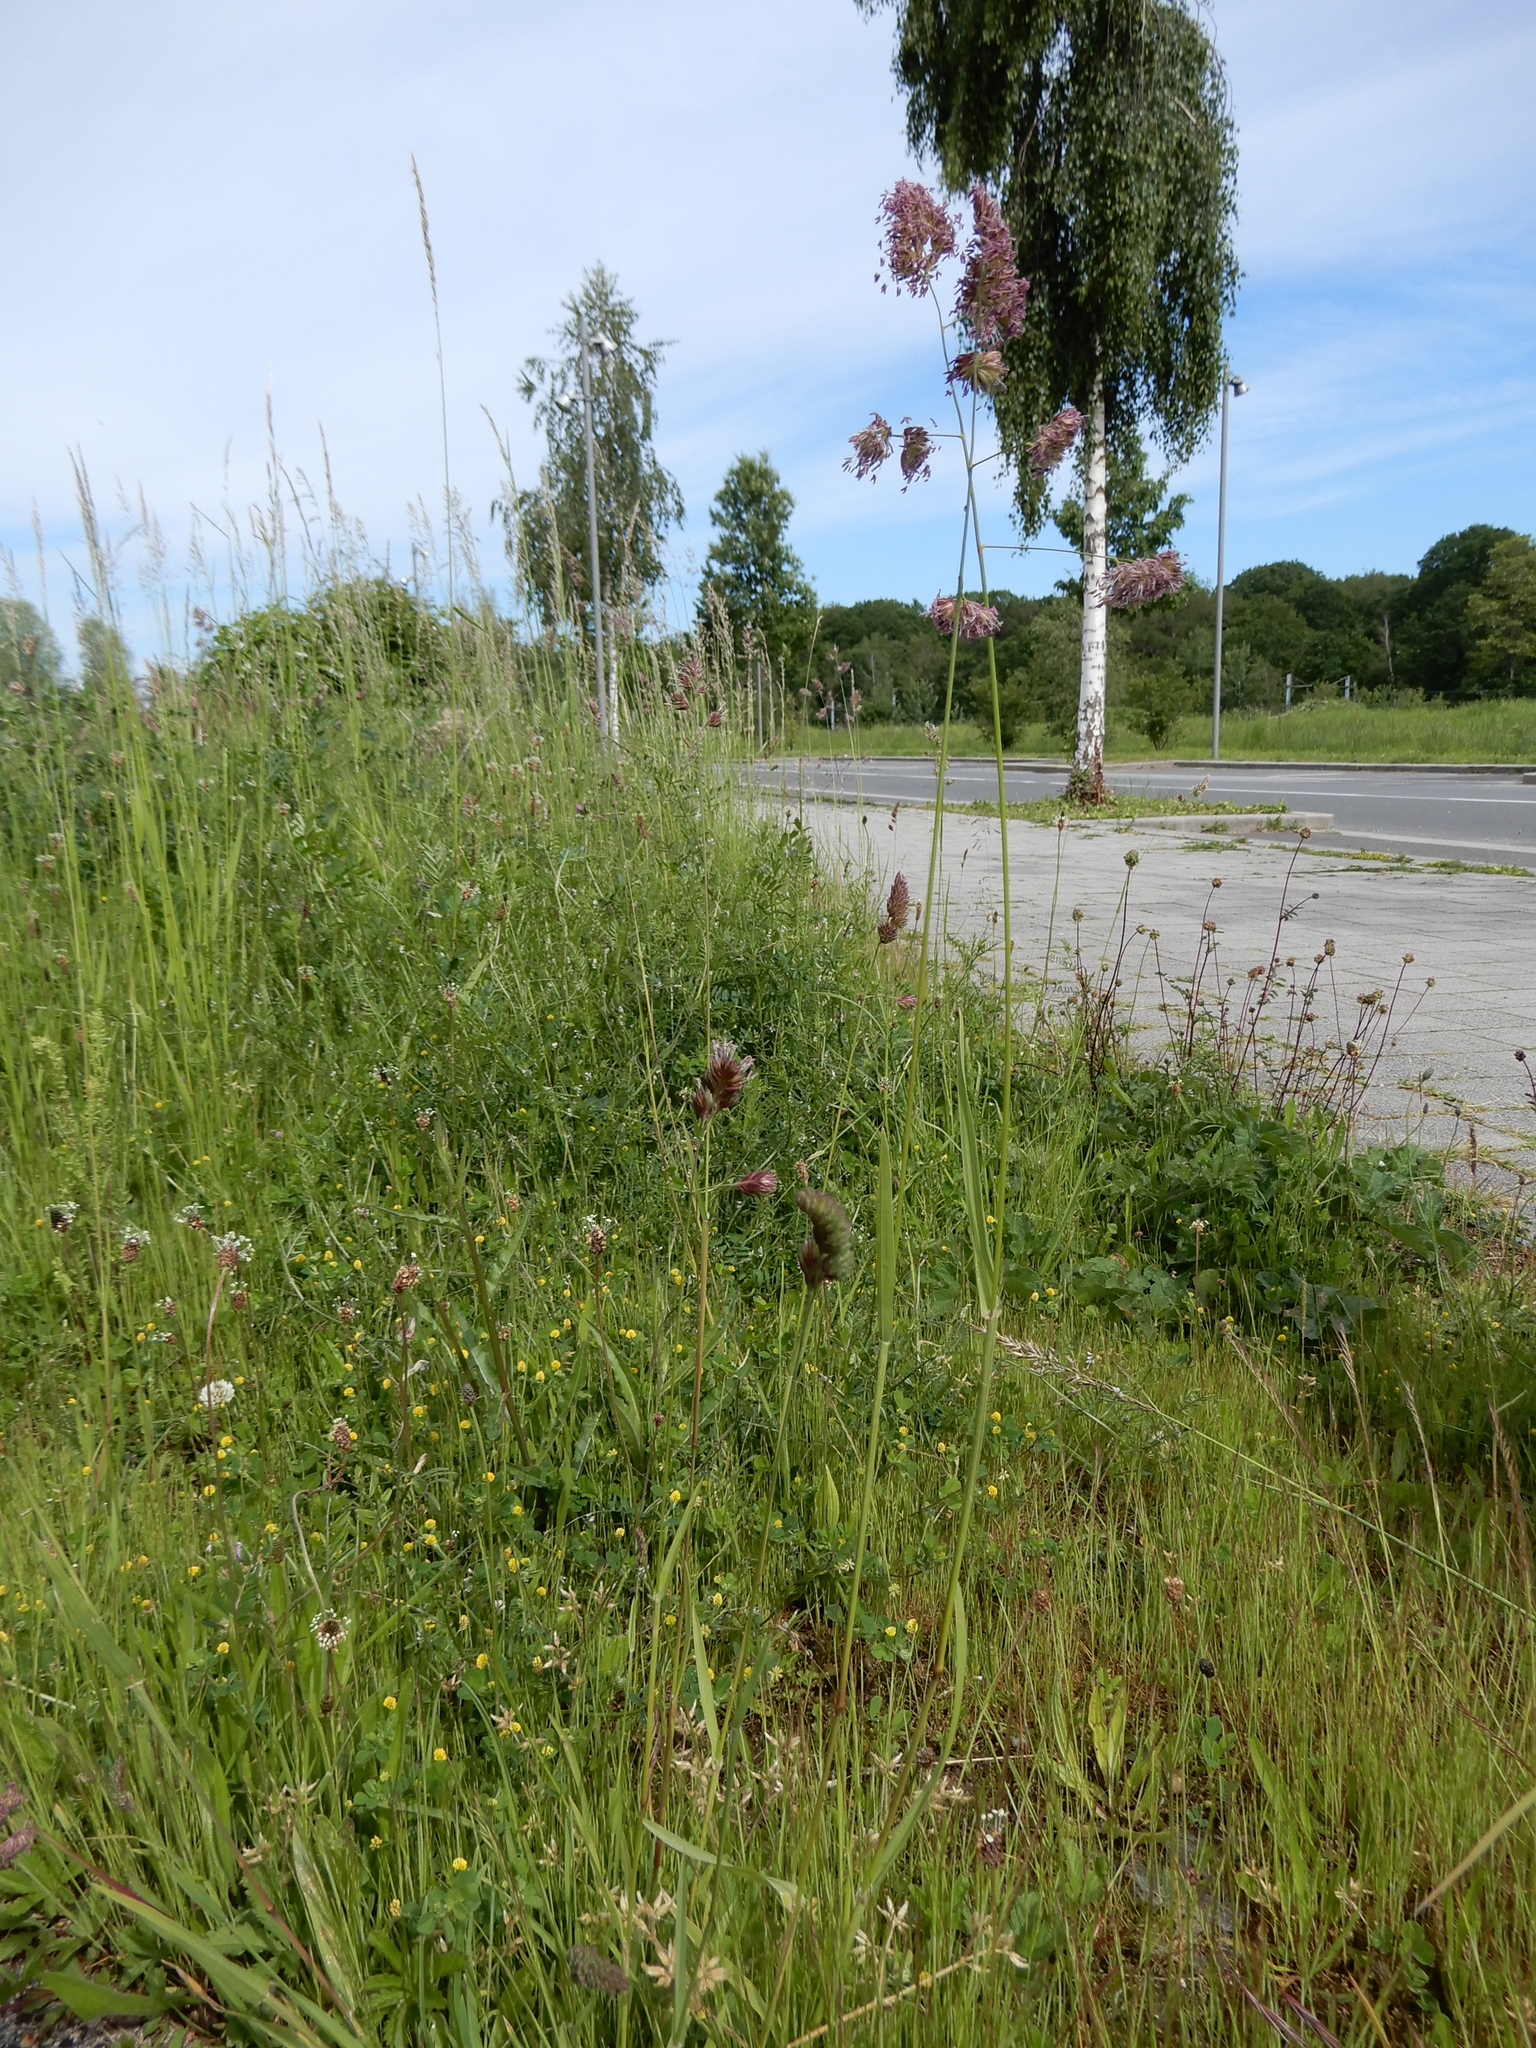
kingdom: Plantae
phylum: Tracheophyta
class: Liliopsida
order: Poales
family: Poaceae
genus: Dactylis
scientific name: Dactylis glomerata
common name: Orchardgrass
